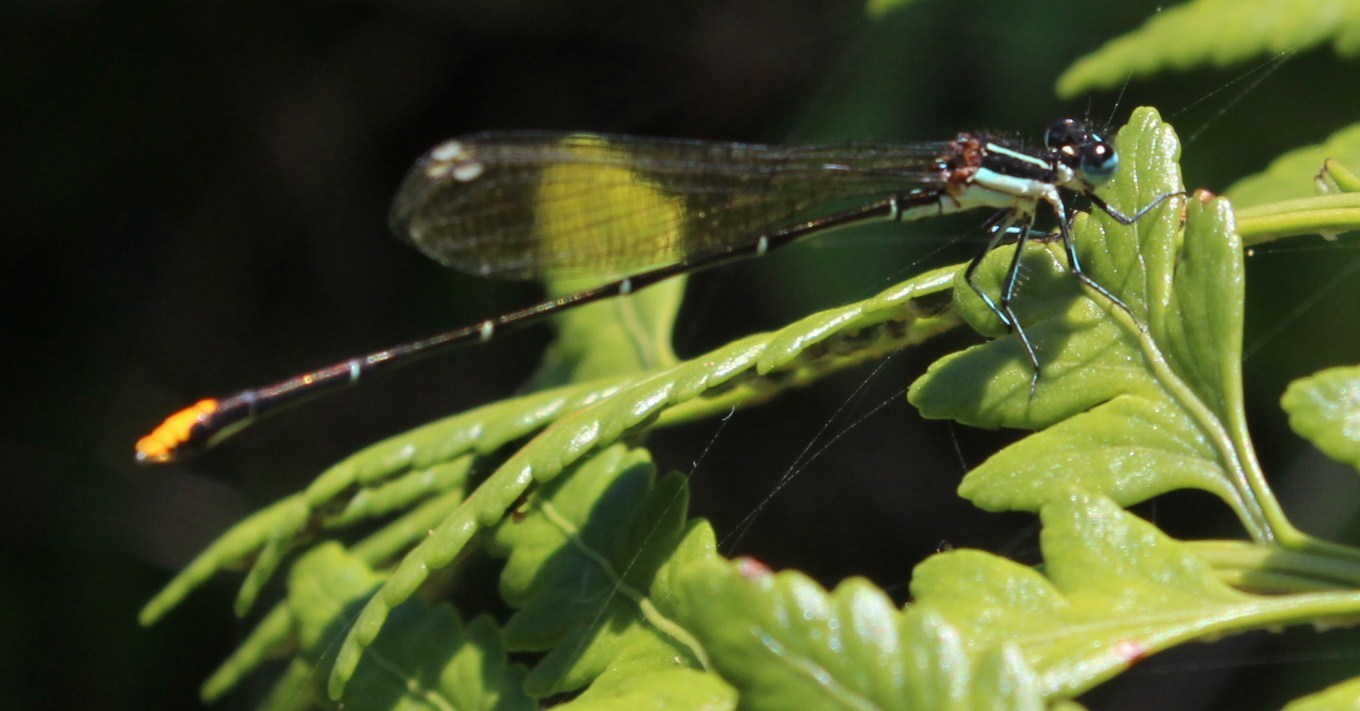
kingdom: Animalia
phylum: Arthropoda
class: Insecta
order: Odonata
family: Platycnemididae
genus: Allocnemis
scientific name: Allocnemis leucosticta
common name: Goldtail
